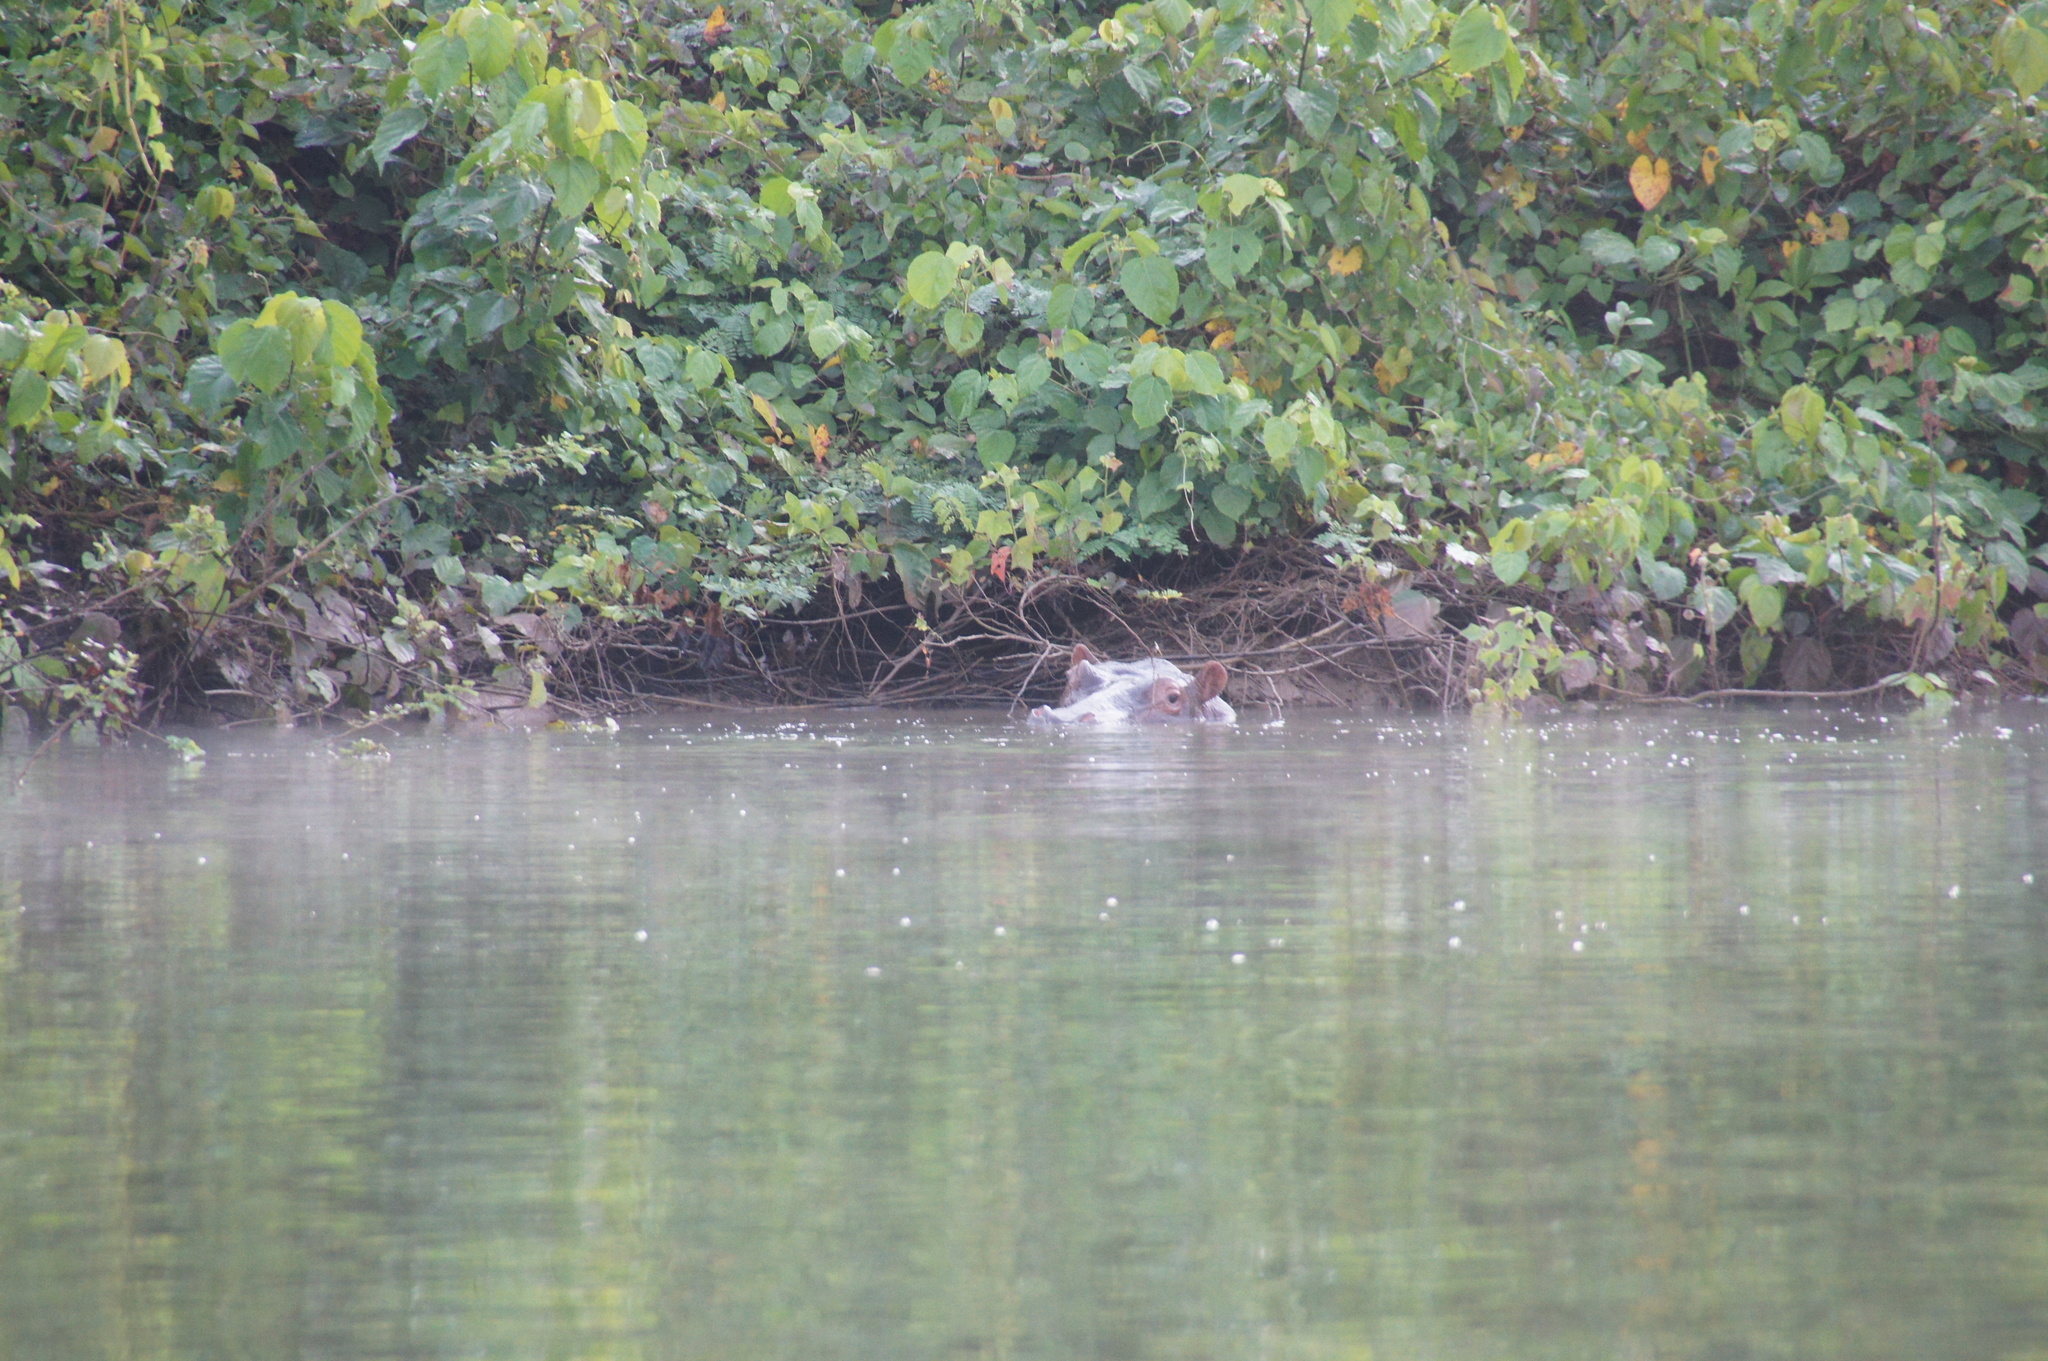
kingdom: Animalia
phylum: Chordata
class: Mammalia
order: Artiodactyla
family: Hippopotamidae
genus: Hippopotamus
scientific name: Hippopotamus amphibius
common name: Common hippopotamus
